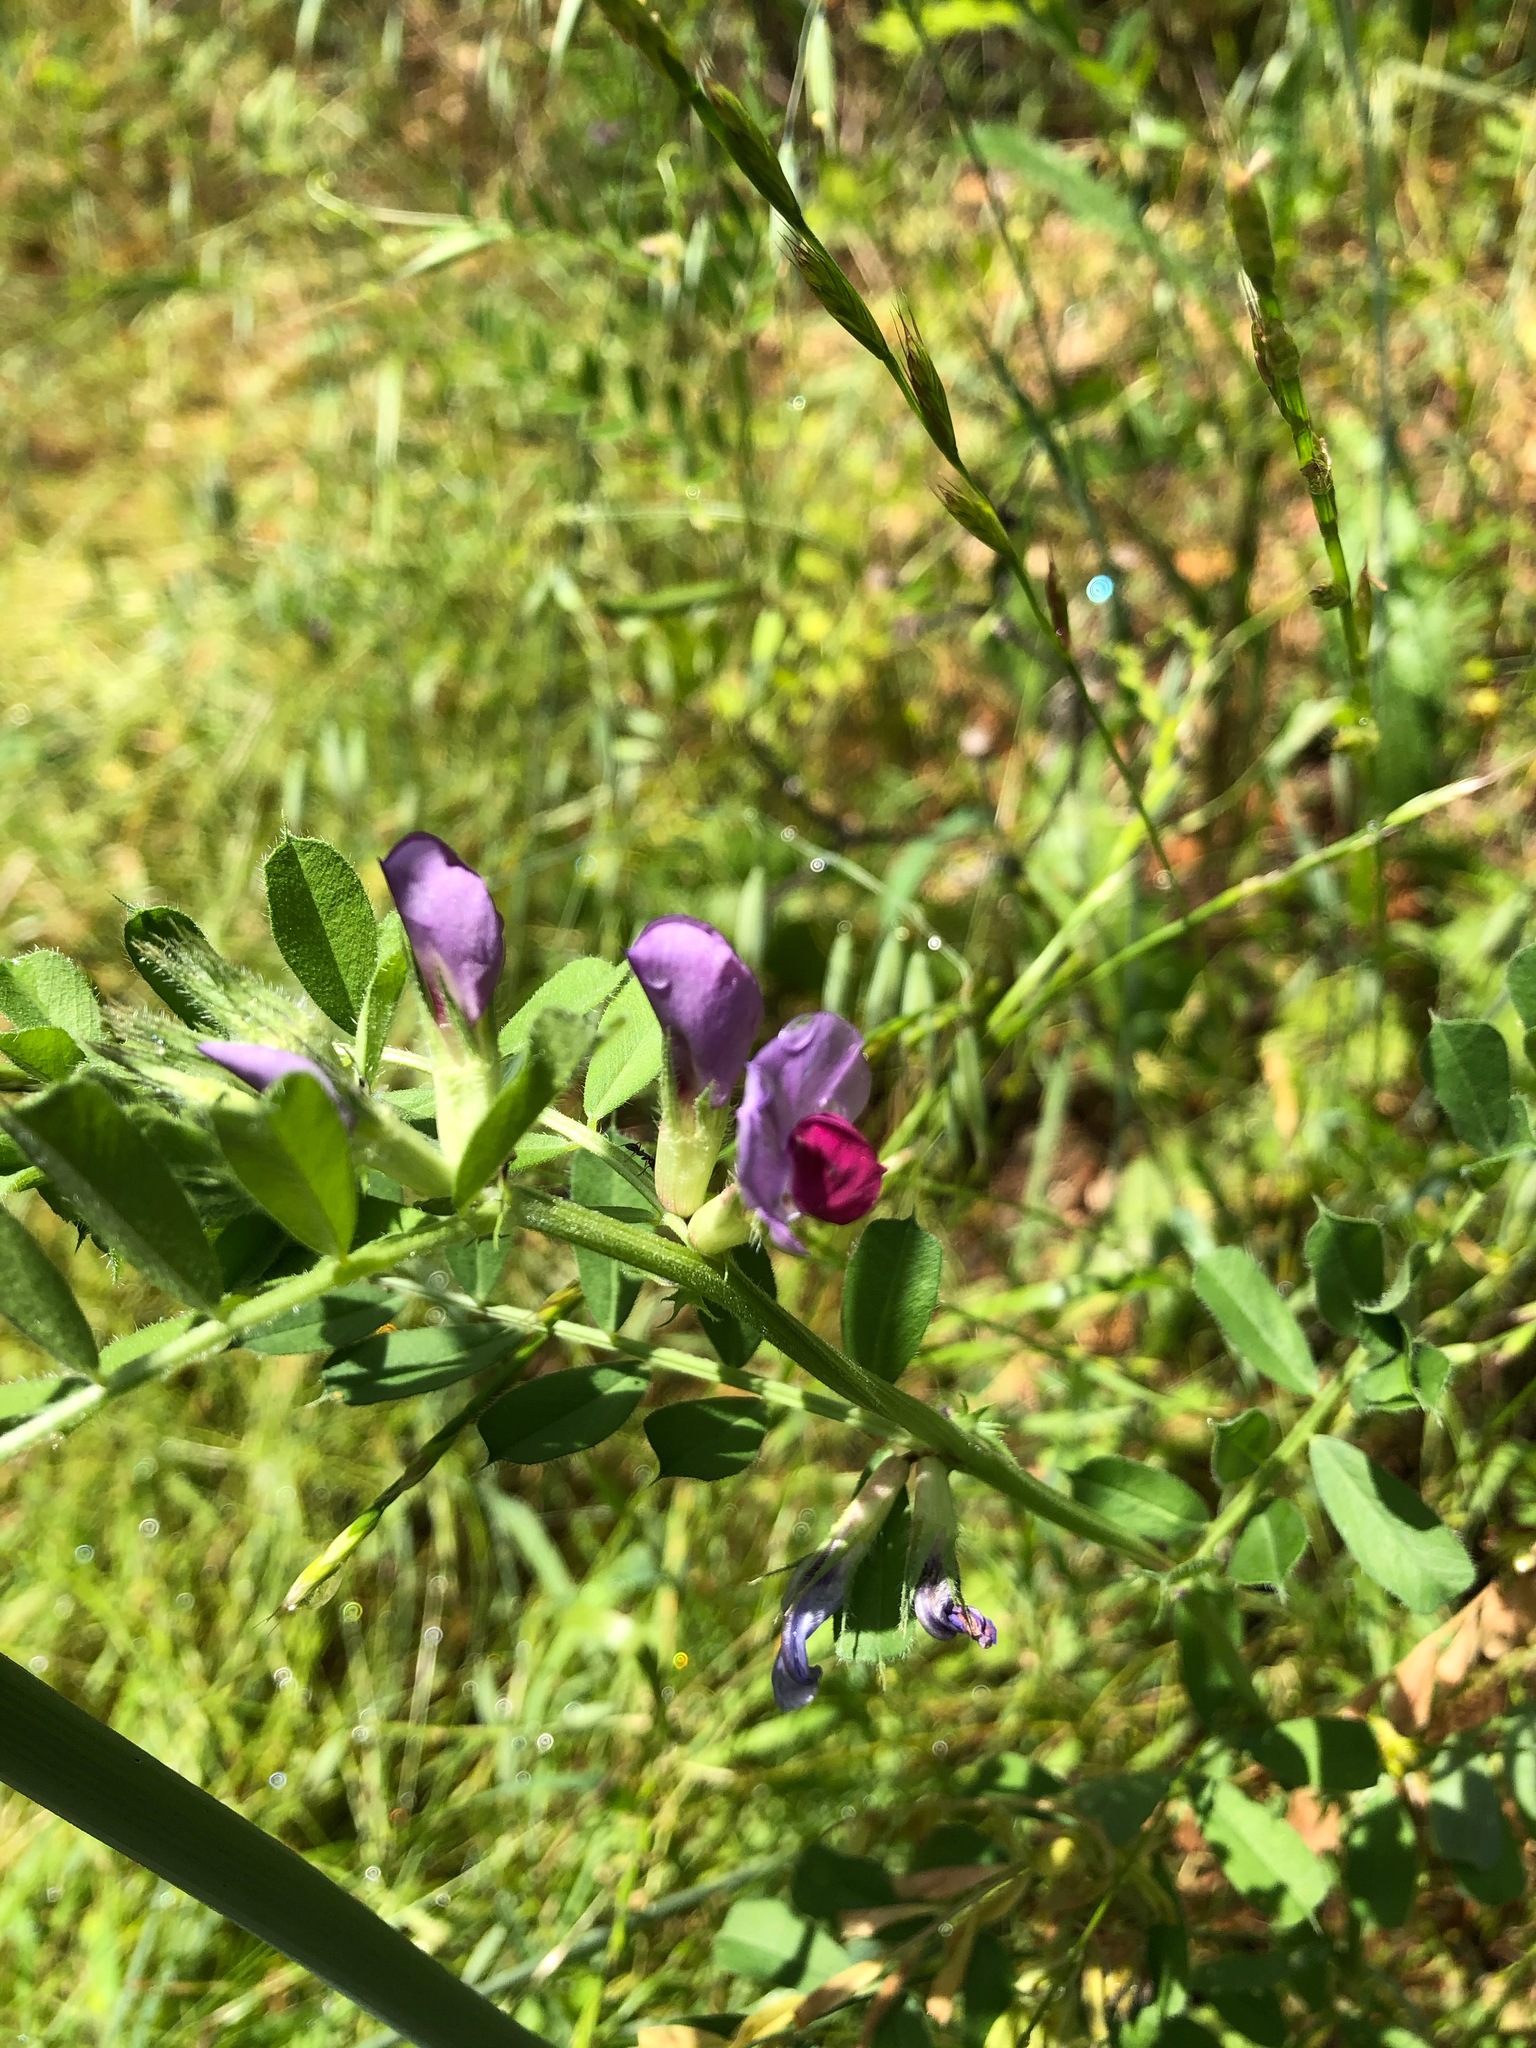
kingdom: Plantae
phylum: Tracheophyta
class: Magnoliopsida
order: Fabales
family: Fabaceae
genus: Vicia
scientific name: Vicia sativa
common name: Garden vetch
